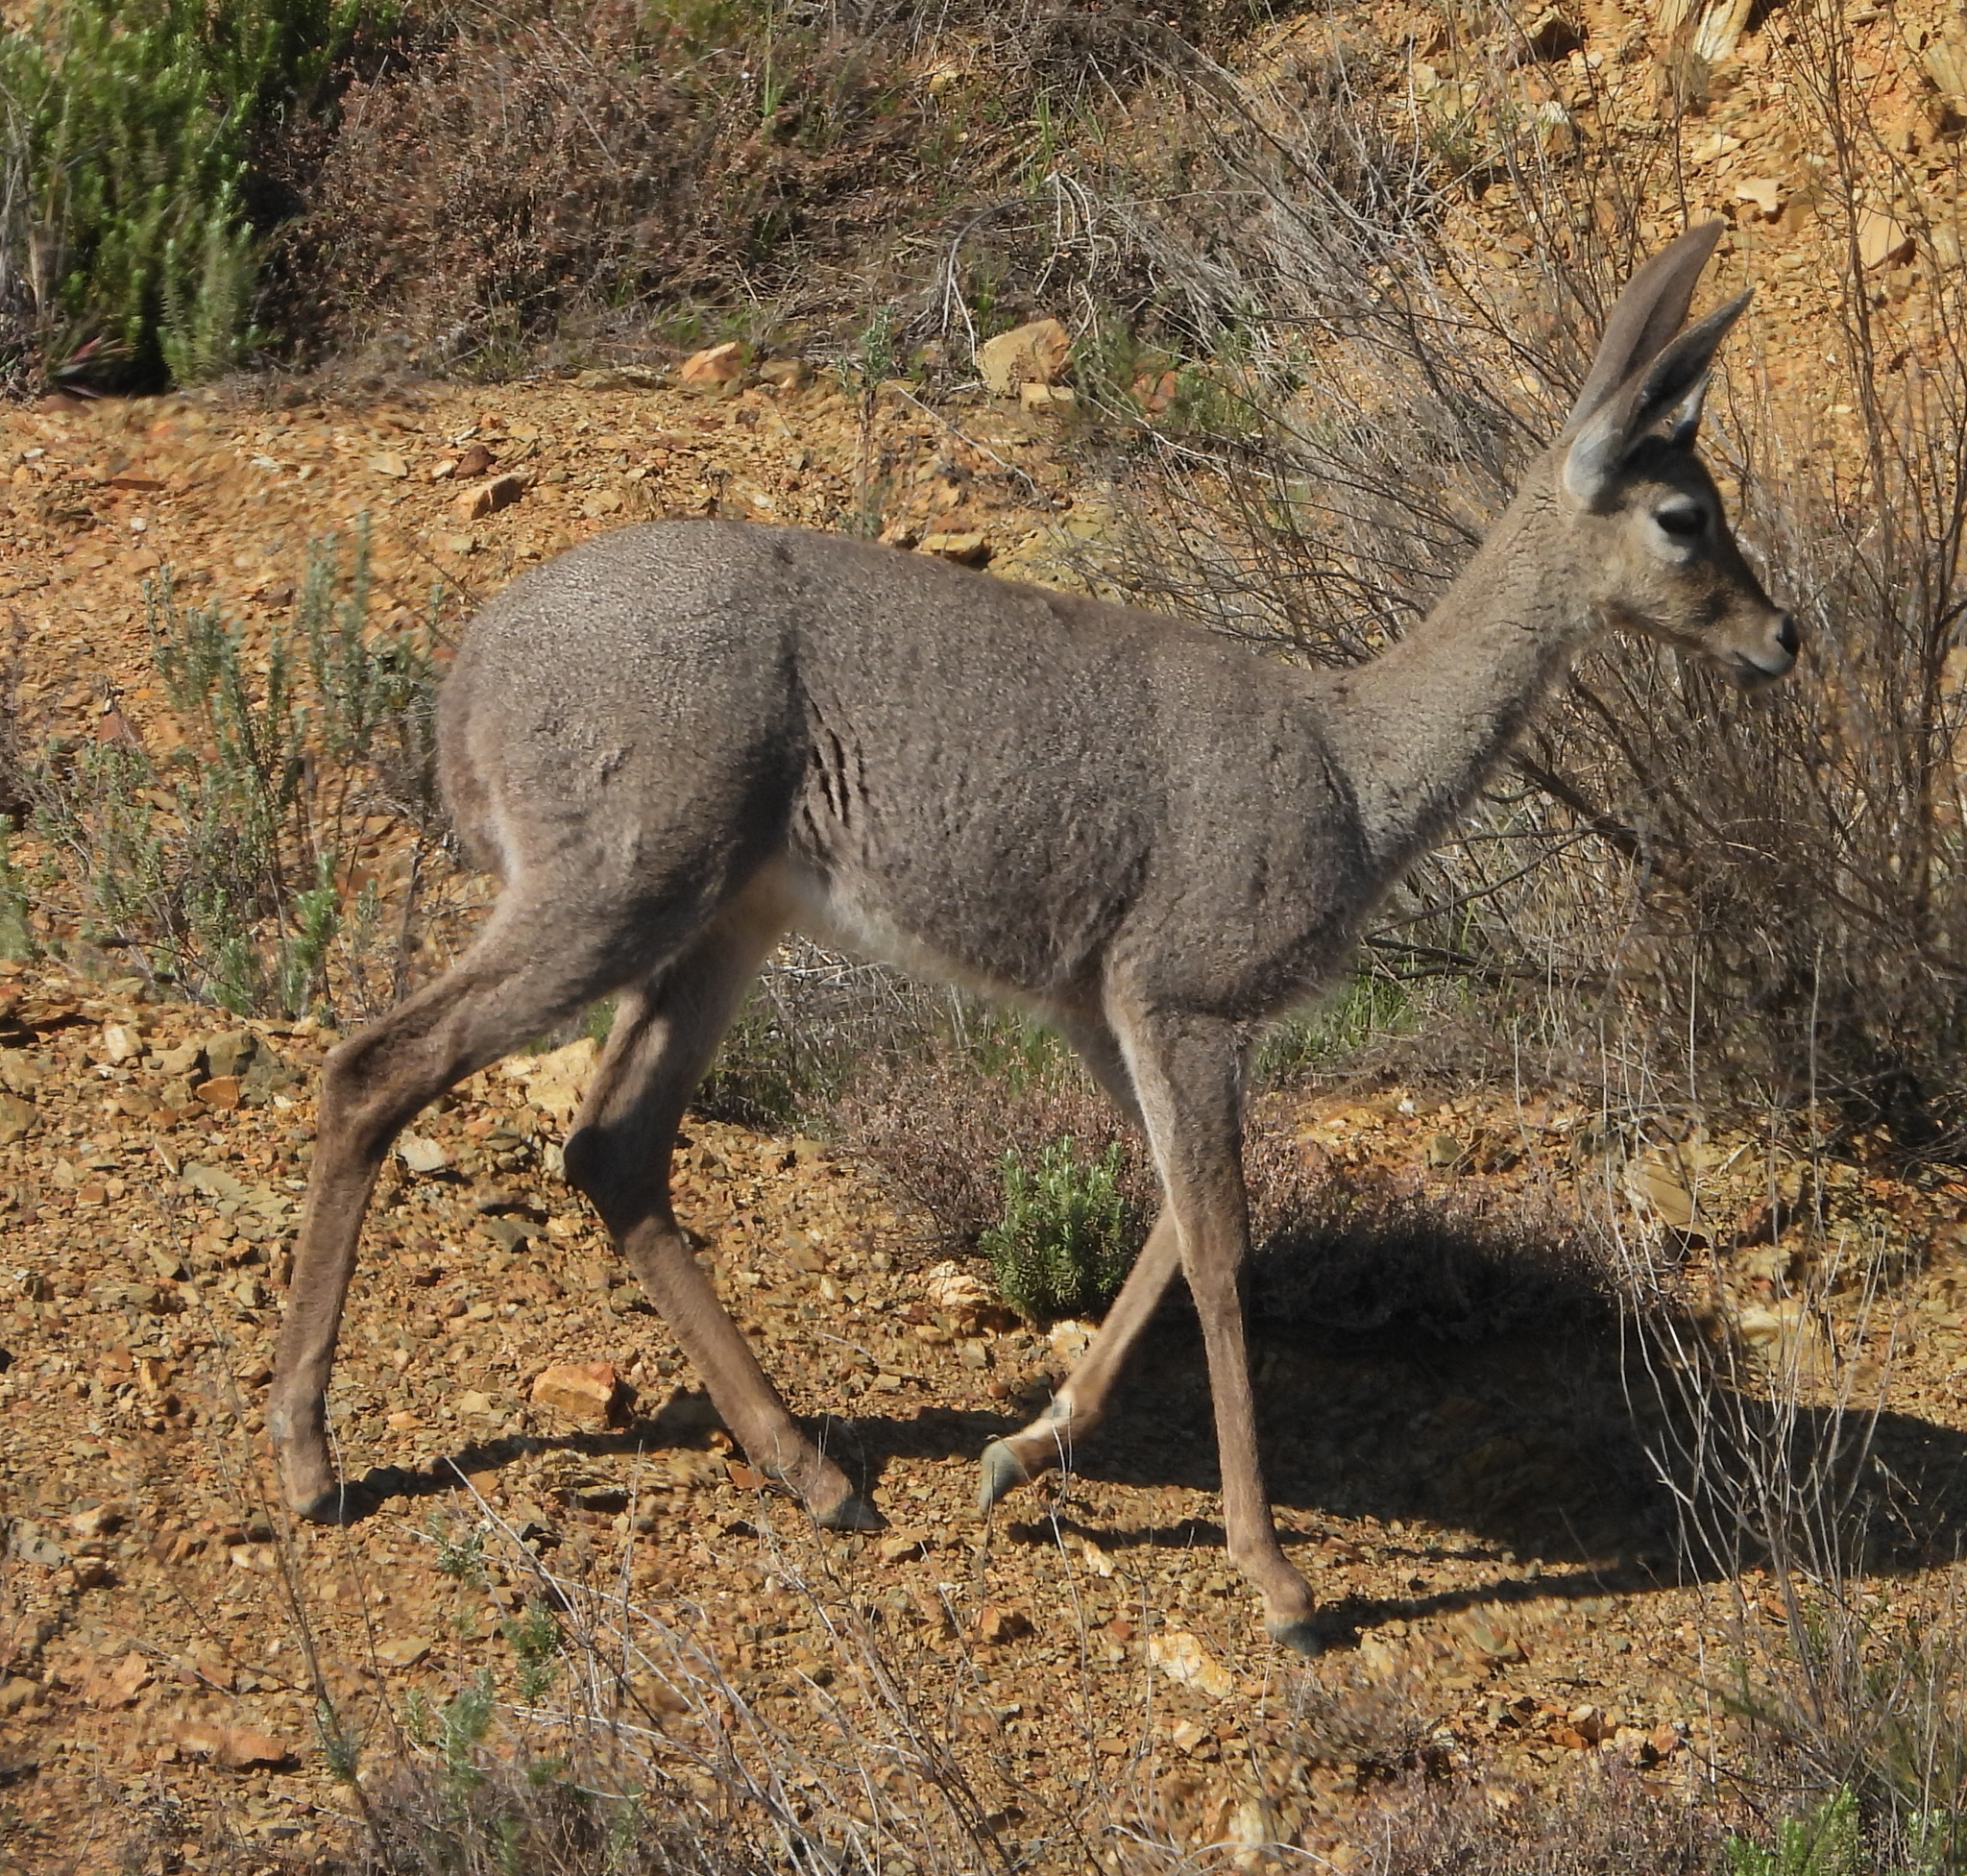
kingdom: Animalia
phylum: Chordata
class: Mammalia
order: Artiodactyla
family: Bovidae
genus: Pelea
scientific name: Pelea capreolus
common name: Common rhebok
